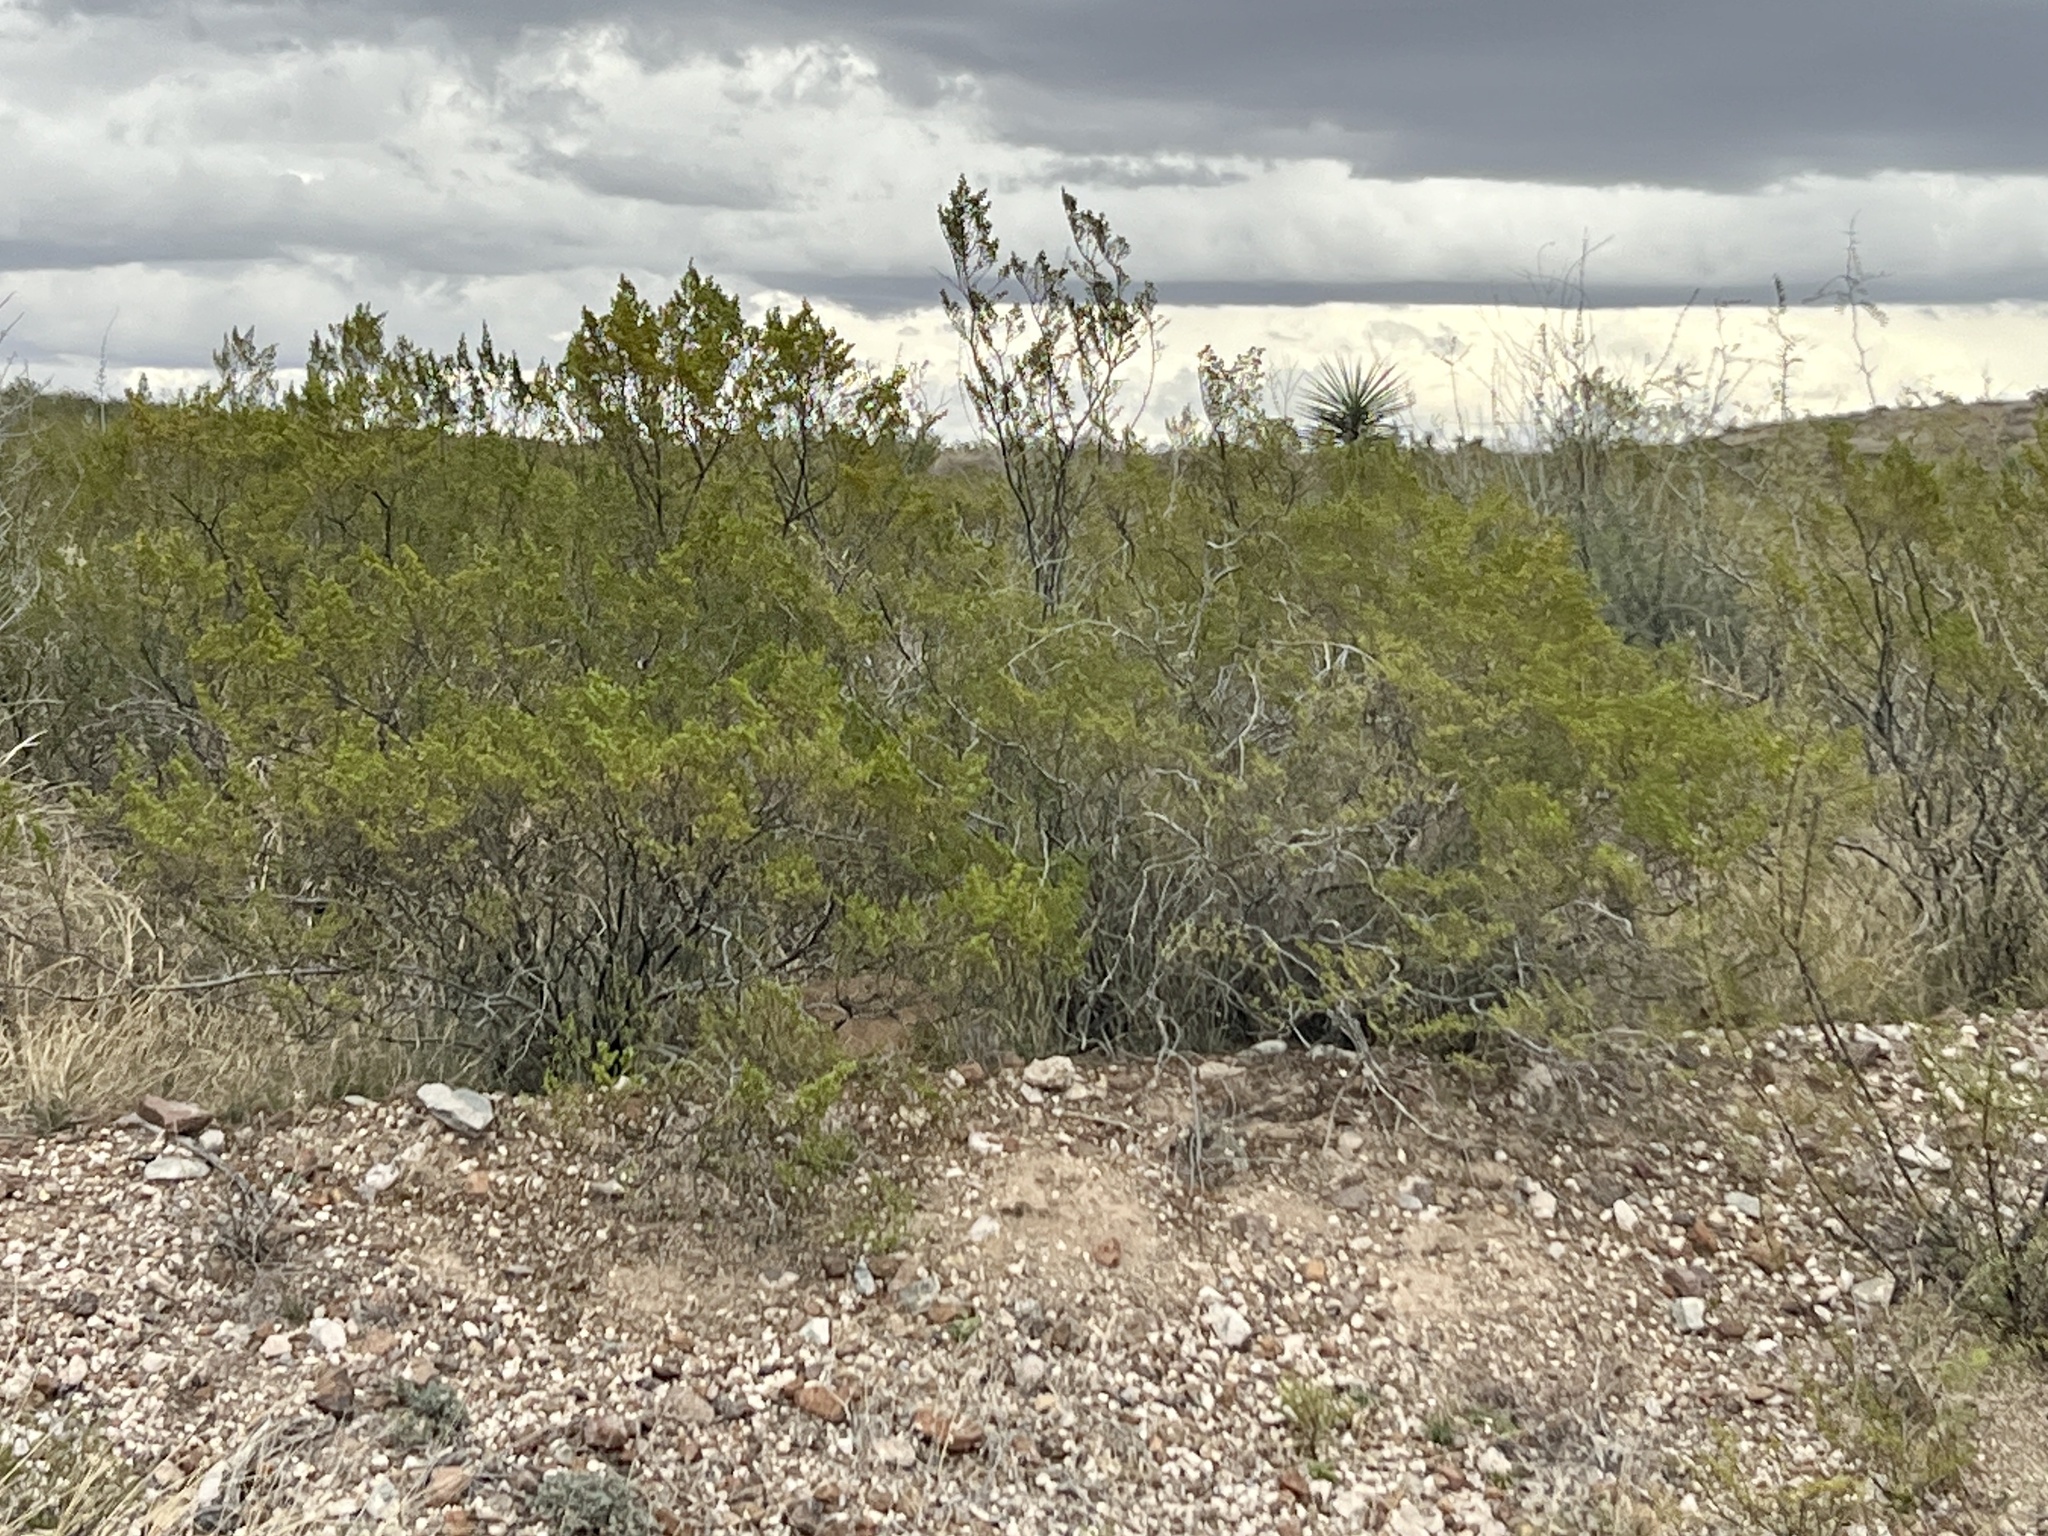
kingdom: Plantae
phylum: Tracheophyta
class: Magnoliopsida
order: Zygophyllales
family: Zygophyllaceae
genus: Larrea
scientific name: Larrea tridentata
